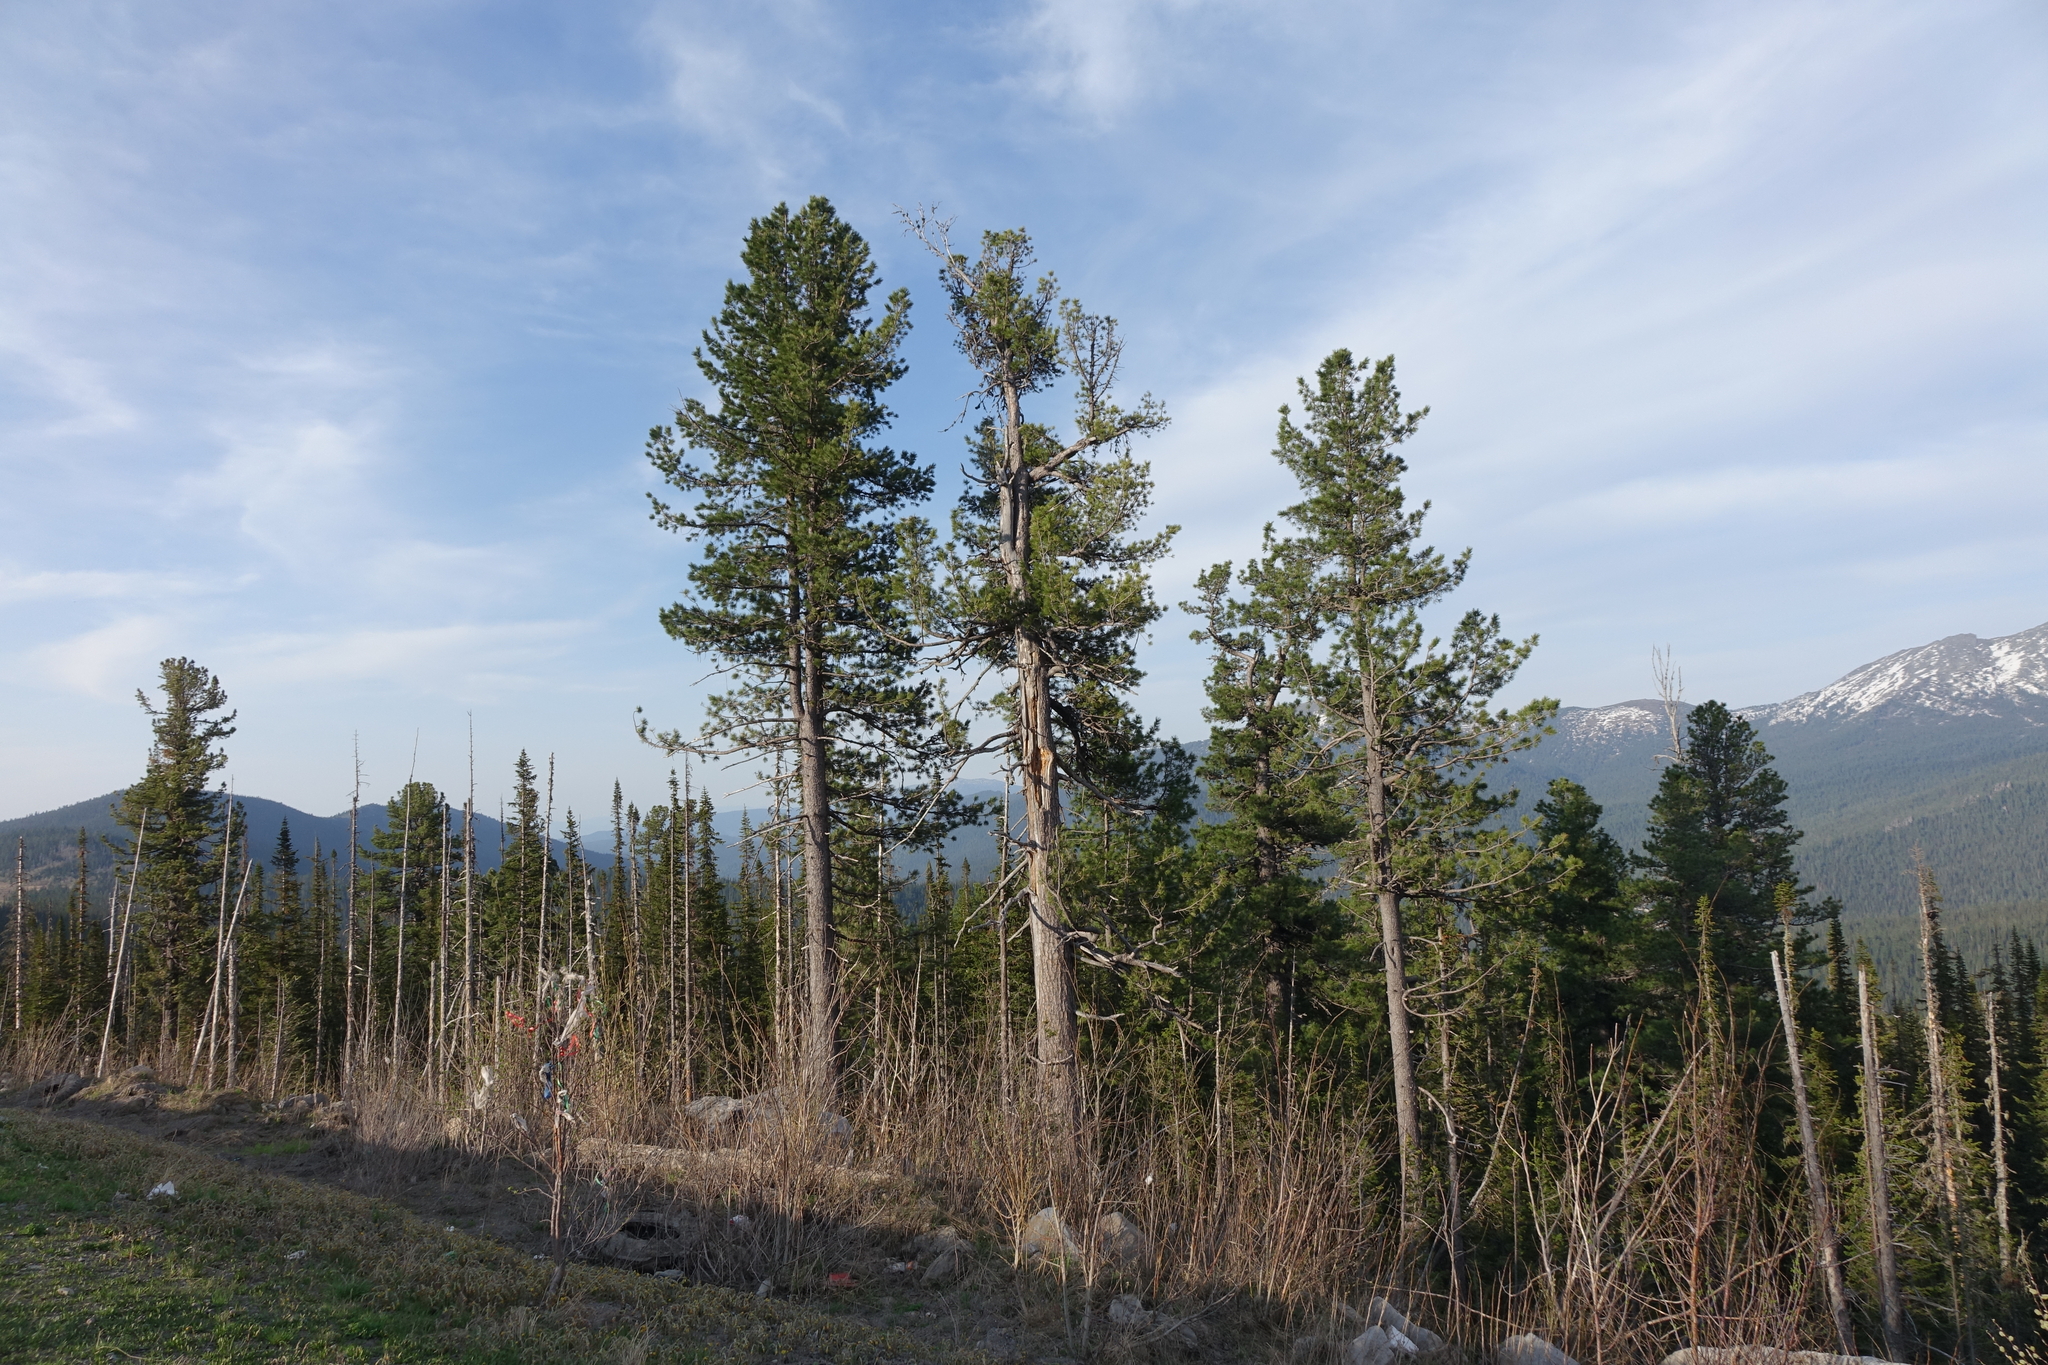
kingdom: Plantae
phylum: Tracheophyta
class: Pinopsida
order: Pinales
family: Pinaceae
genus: Pinus
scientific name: Pinus sibirica
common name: Siberian pine
